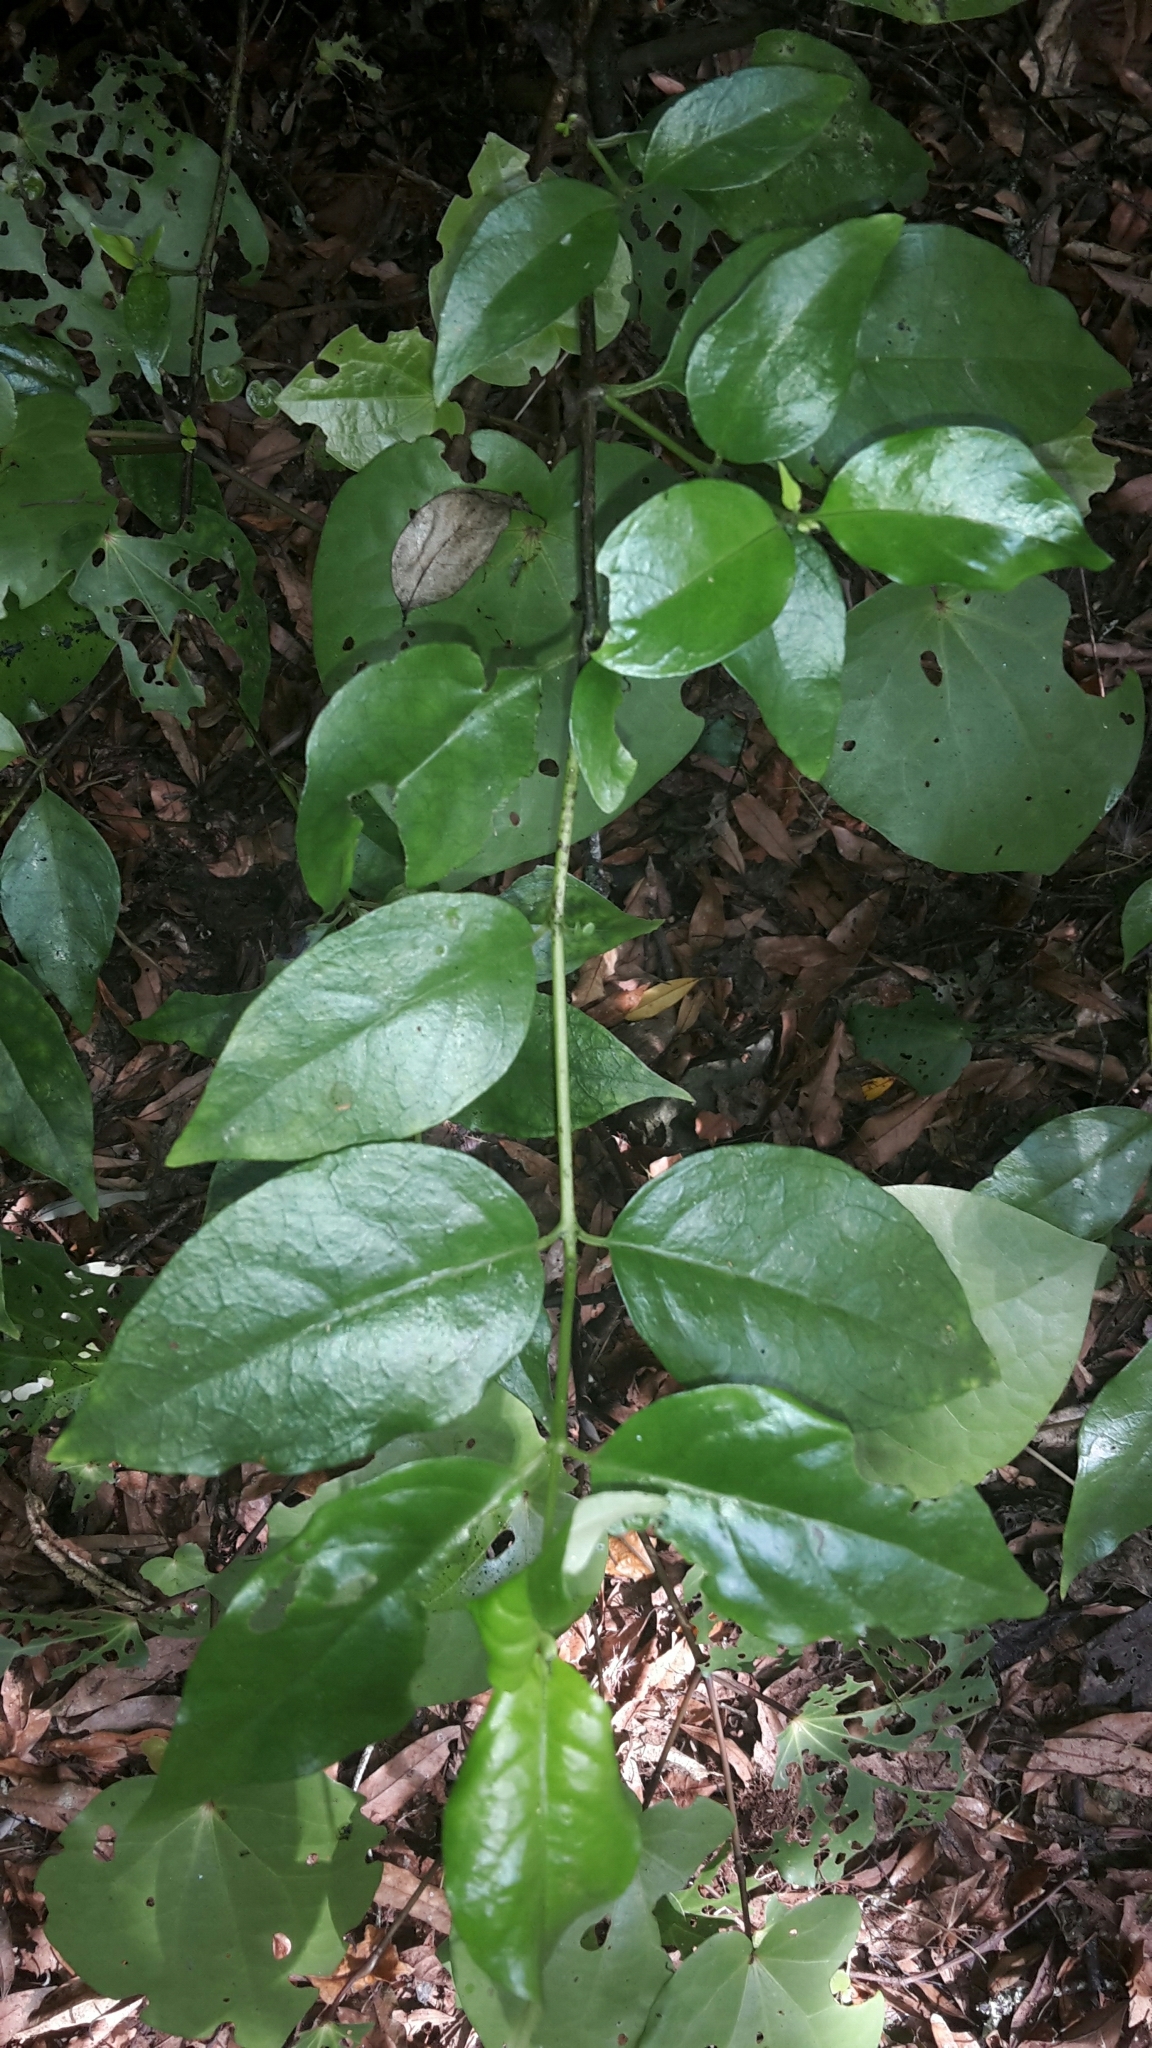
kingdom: Plantae
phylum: Tracheophyta
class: Magnoliopsida
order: Gentianales
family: Loganiaceae
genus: Geniostoma
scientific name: Geniostoma ligustrifolium
